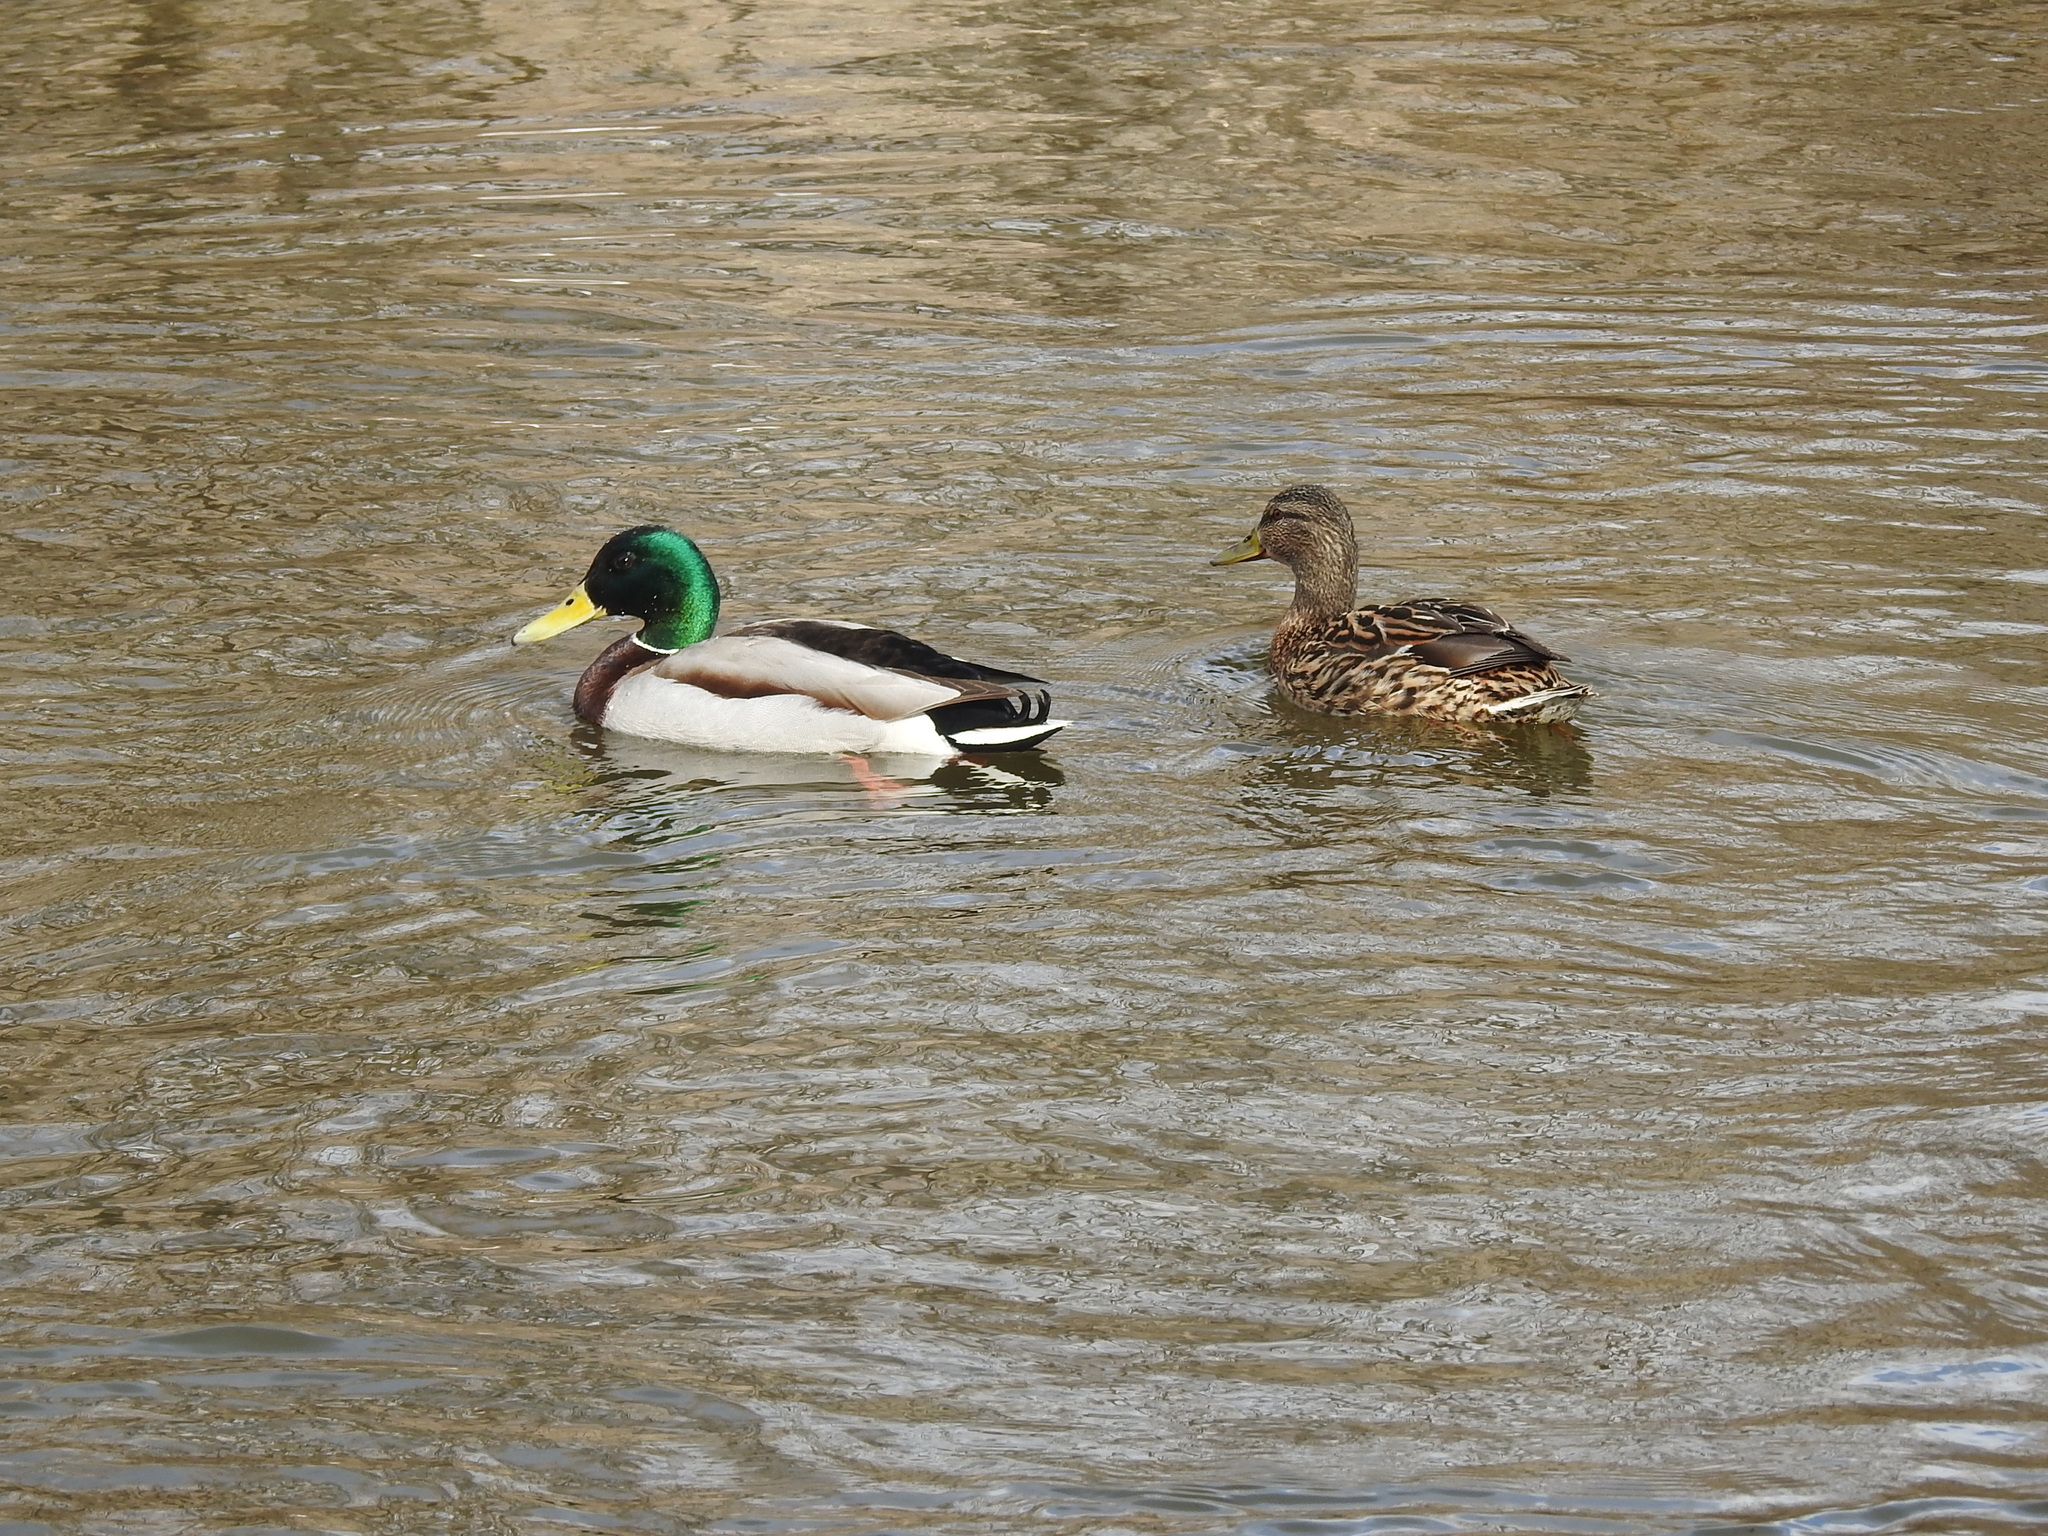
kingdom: Animalia
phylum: Chordata
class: Aves
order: Anseriformes
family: Anatidae
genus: Anas
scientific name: Anas platyrhynchos
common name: Mallard
